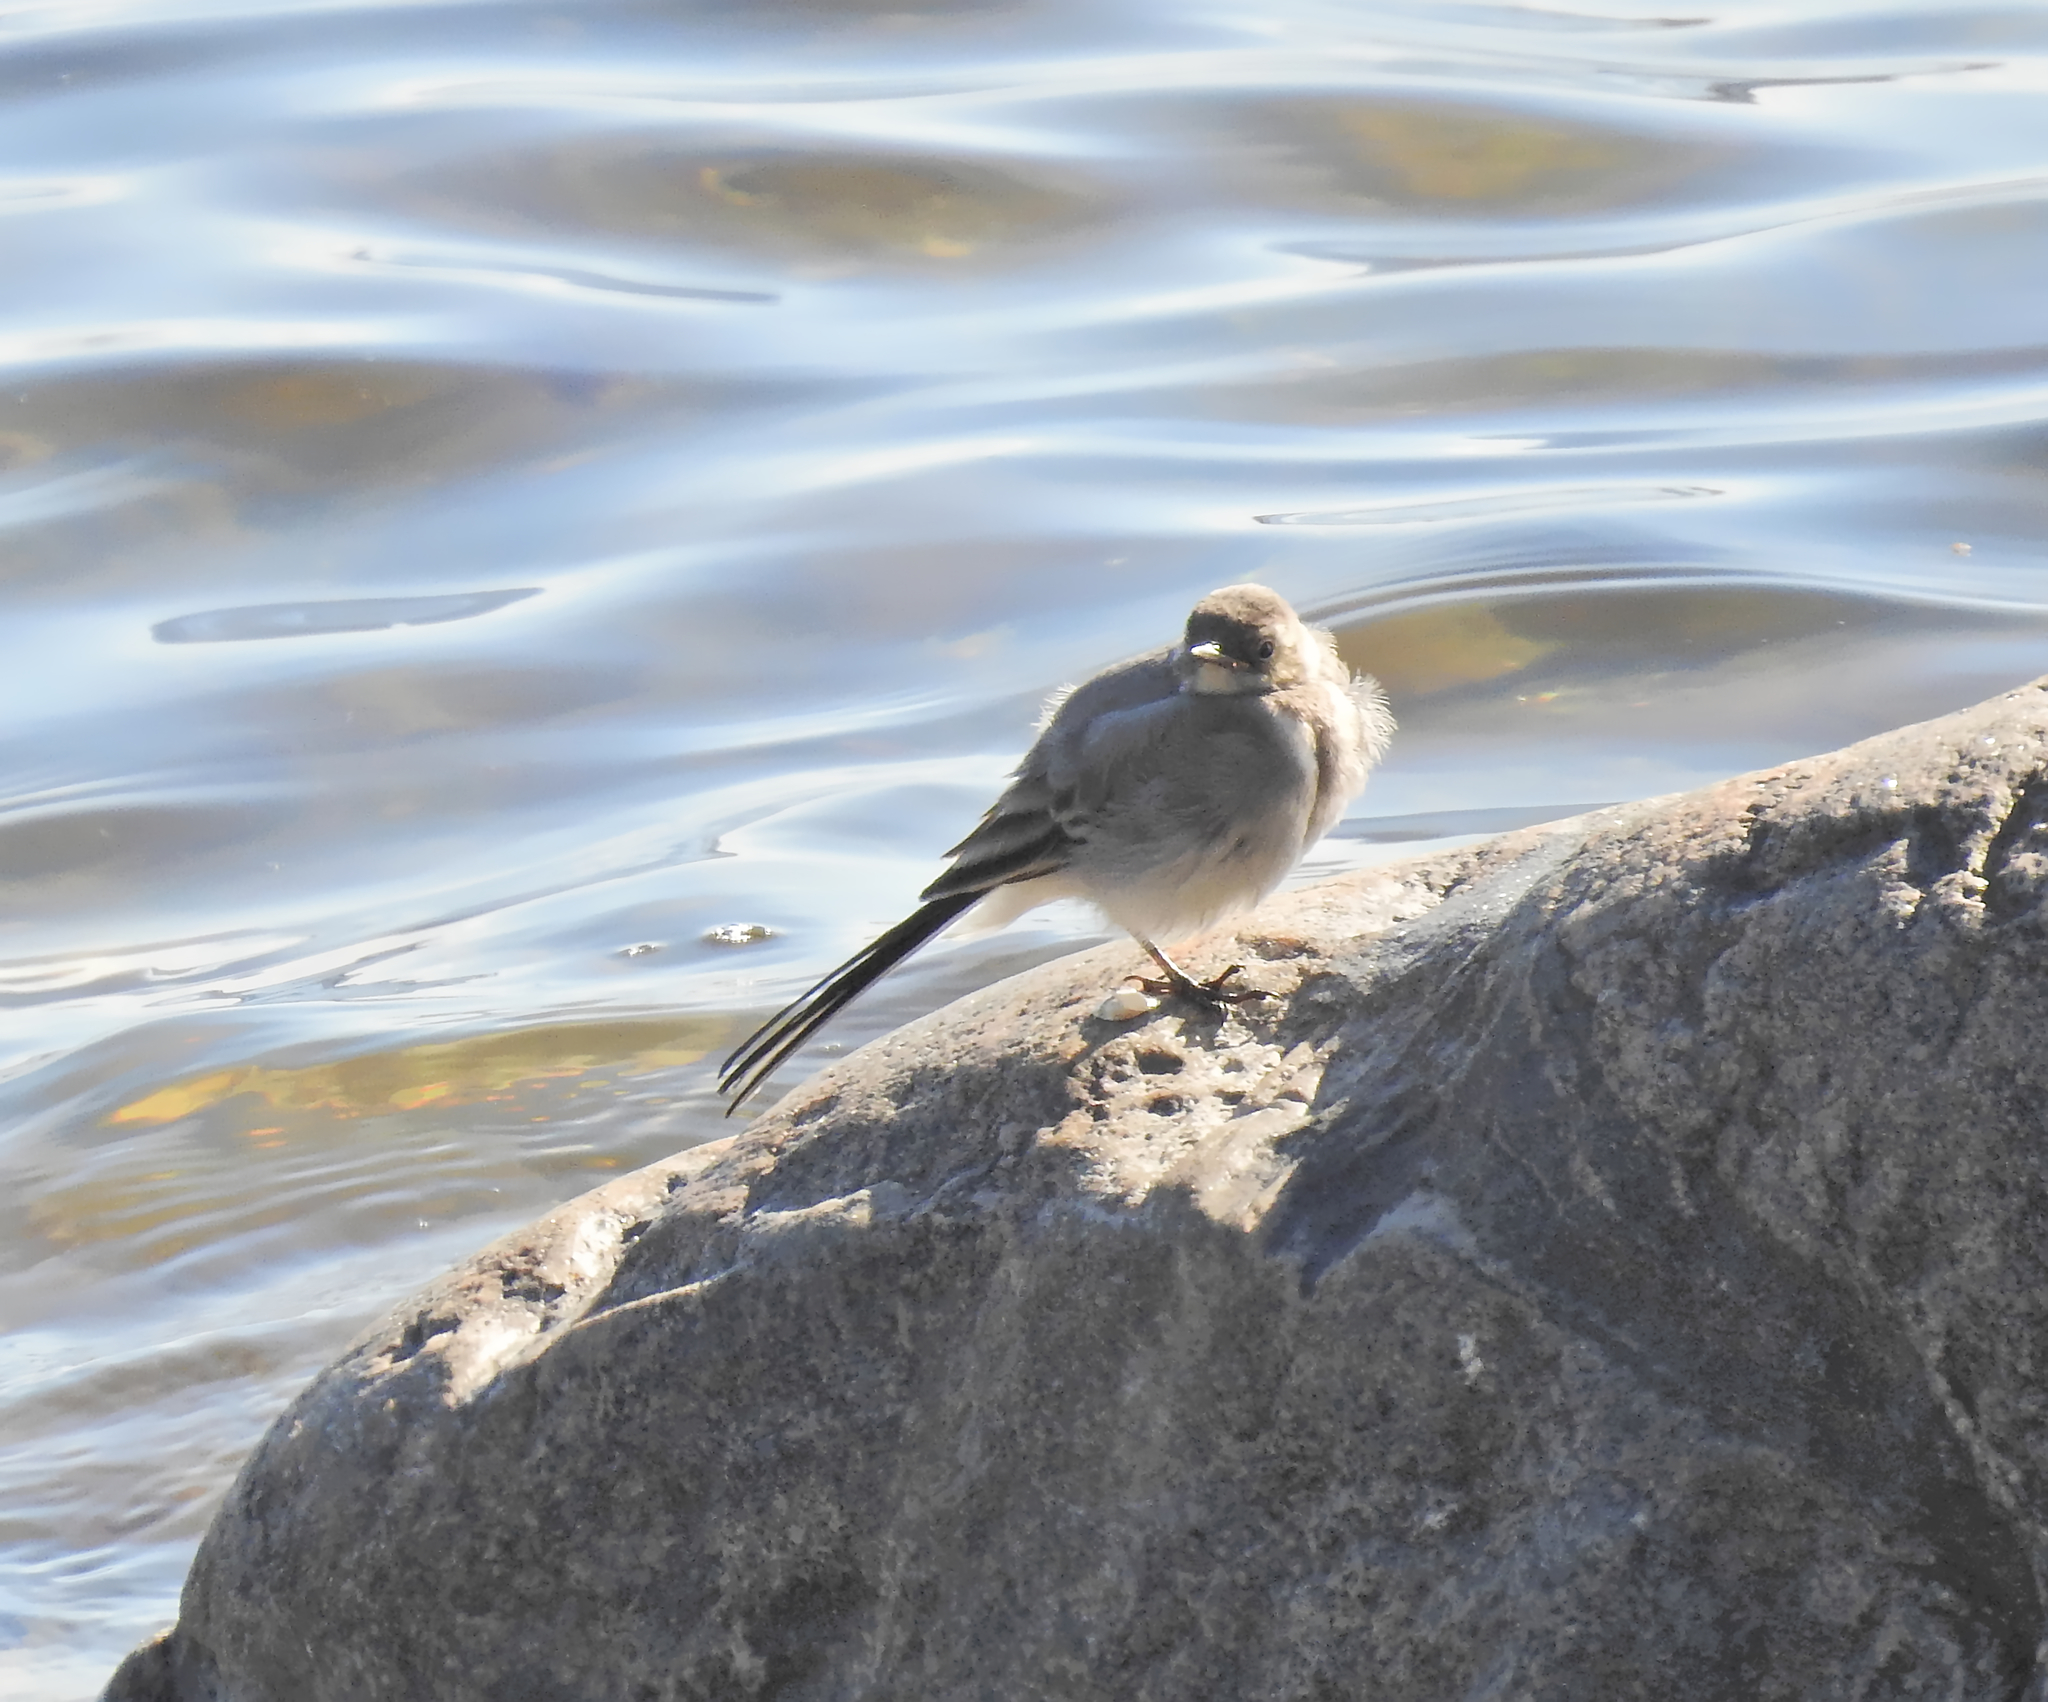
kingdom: Animalia
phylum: Chordata
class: Aves
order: Passeriformes
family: Motacillidae
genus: Motacilla
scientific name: Motacilla alba
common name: White wagtail
